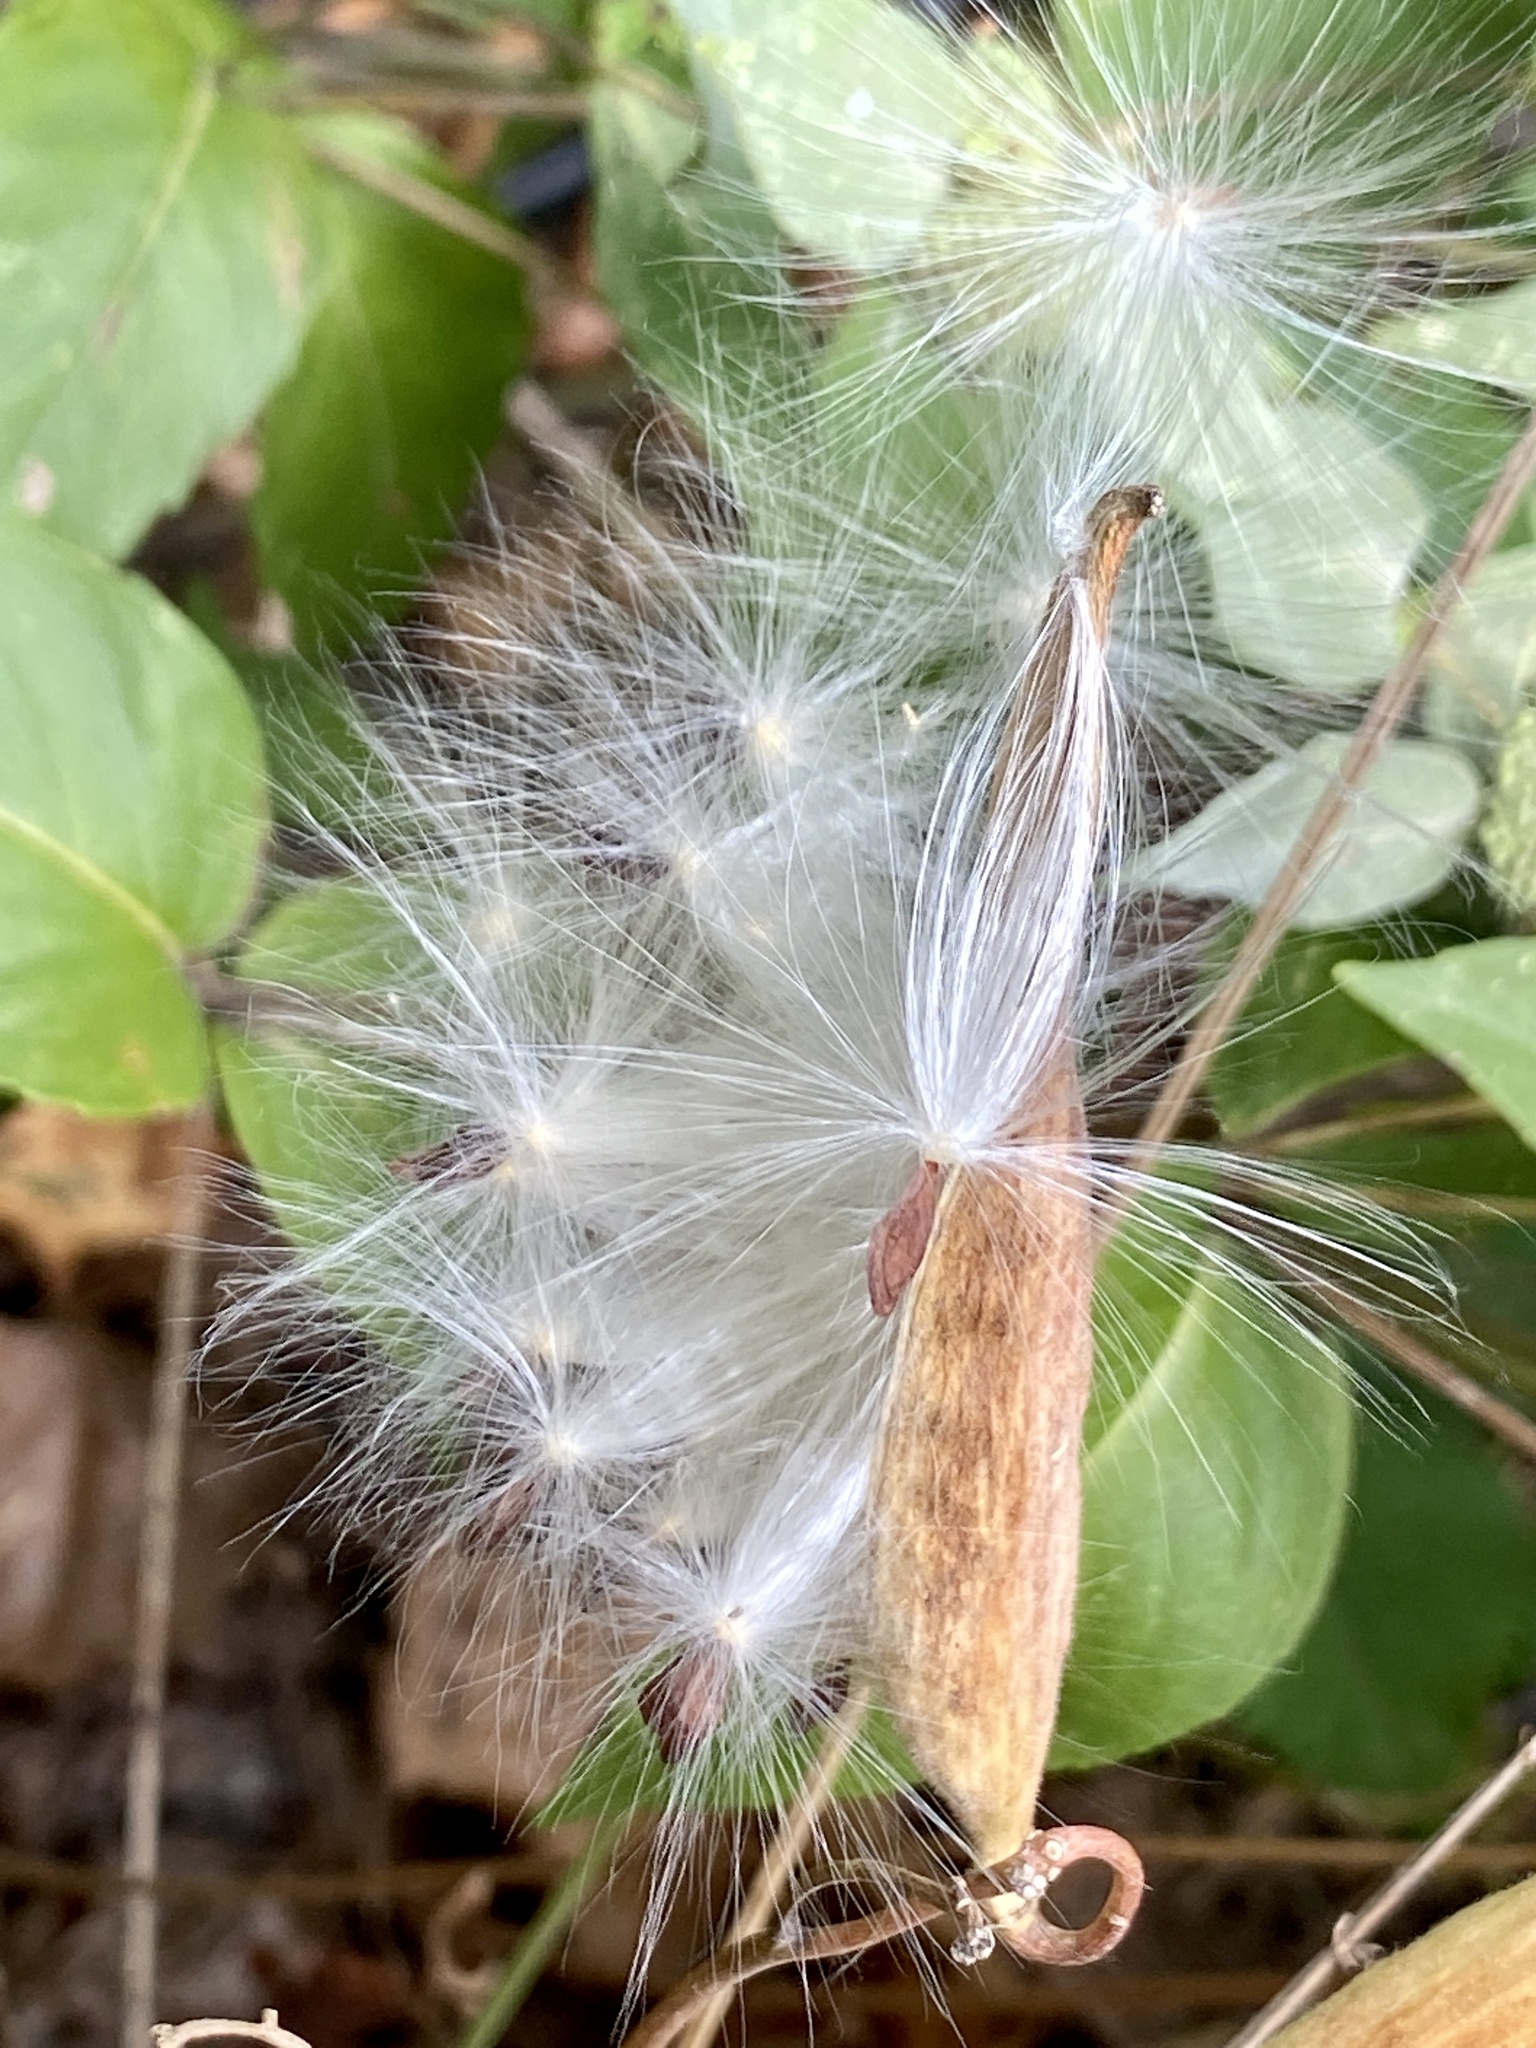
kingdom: Plantae
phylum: Tracheophyta
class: Magnoliopsida
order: Gentianales
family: Apocynaceae
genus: Asclepias
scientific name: Asclepias tuberosa
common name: Butterfly milkweed
